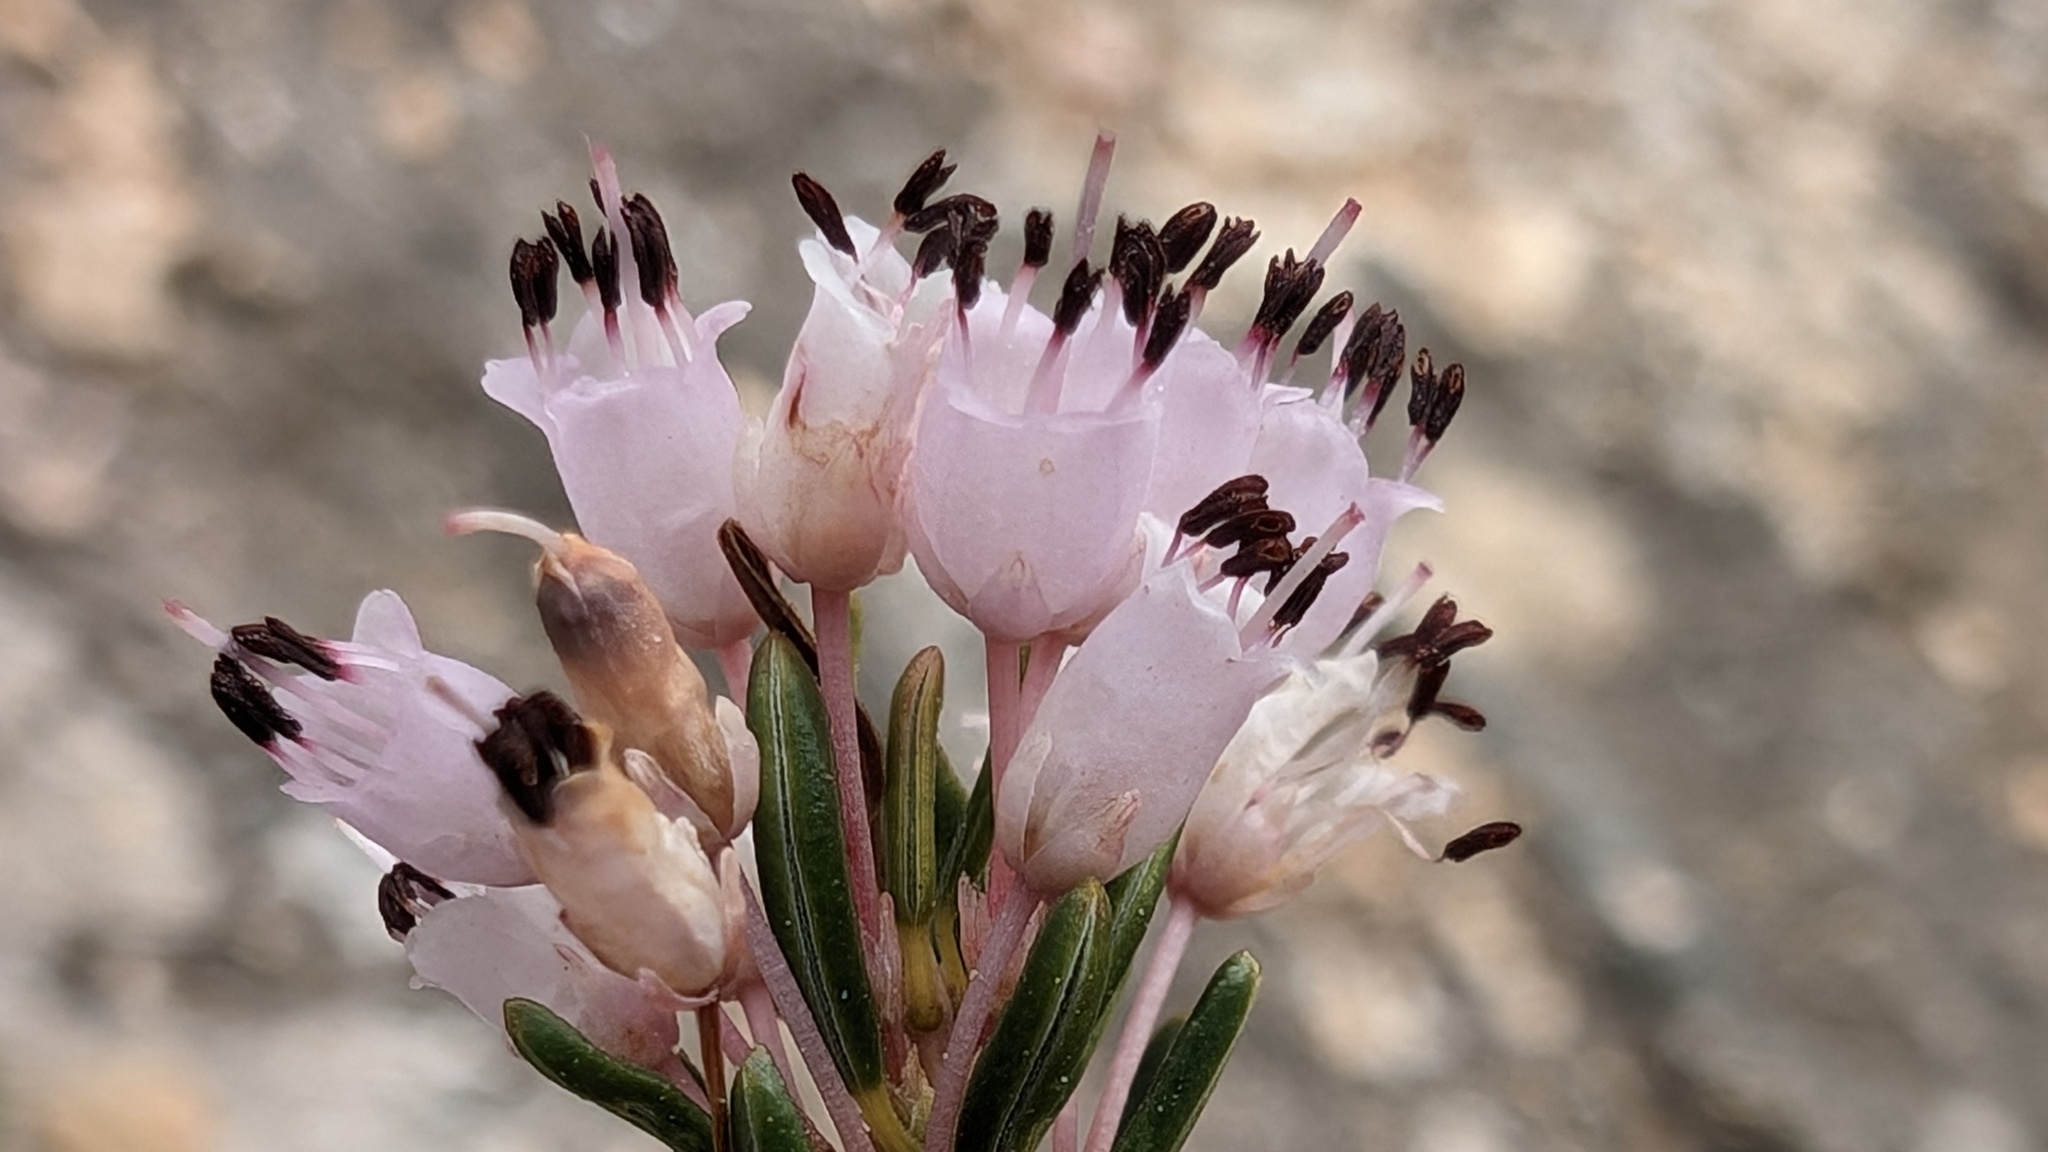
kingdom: Plantae
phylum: Tracheophyta
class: Magnoliopsida
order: Ericales
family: Ericaceae
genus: Erica
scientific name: Erica multiflora
